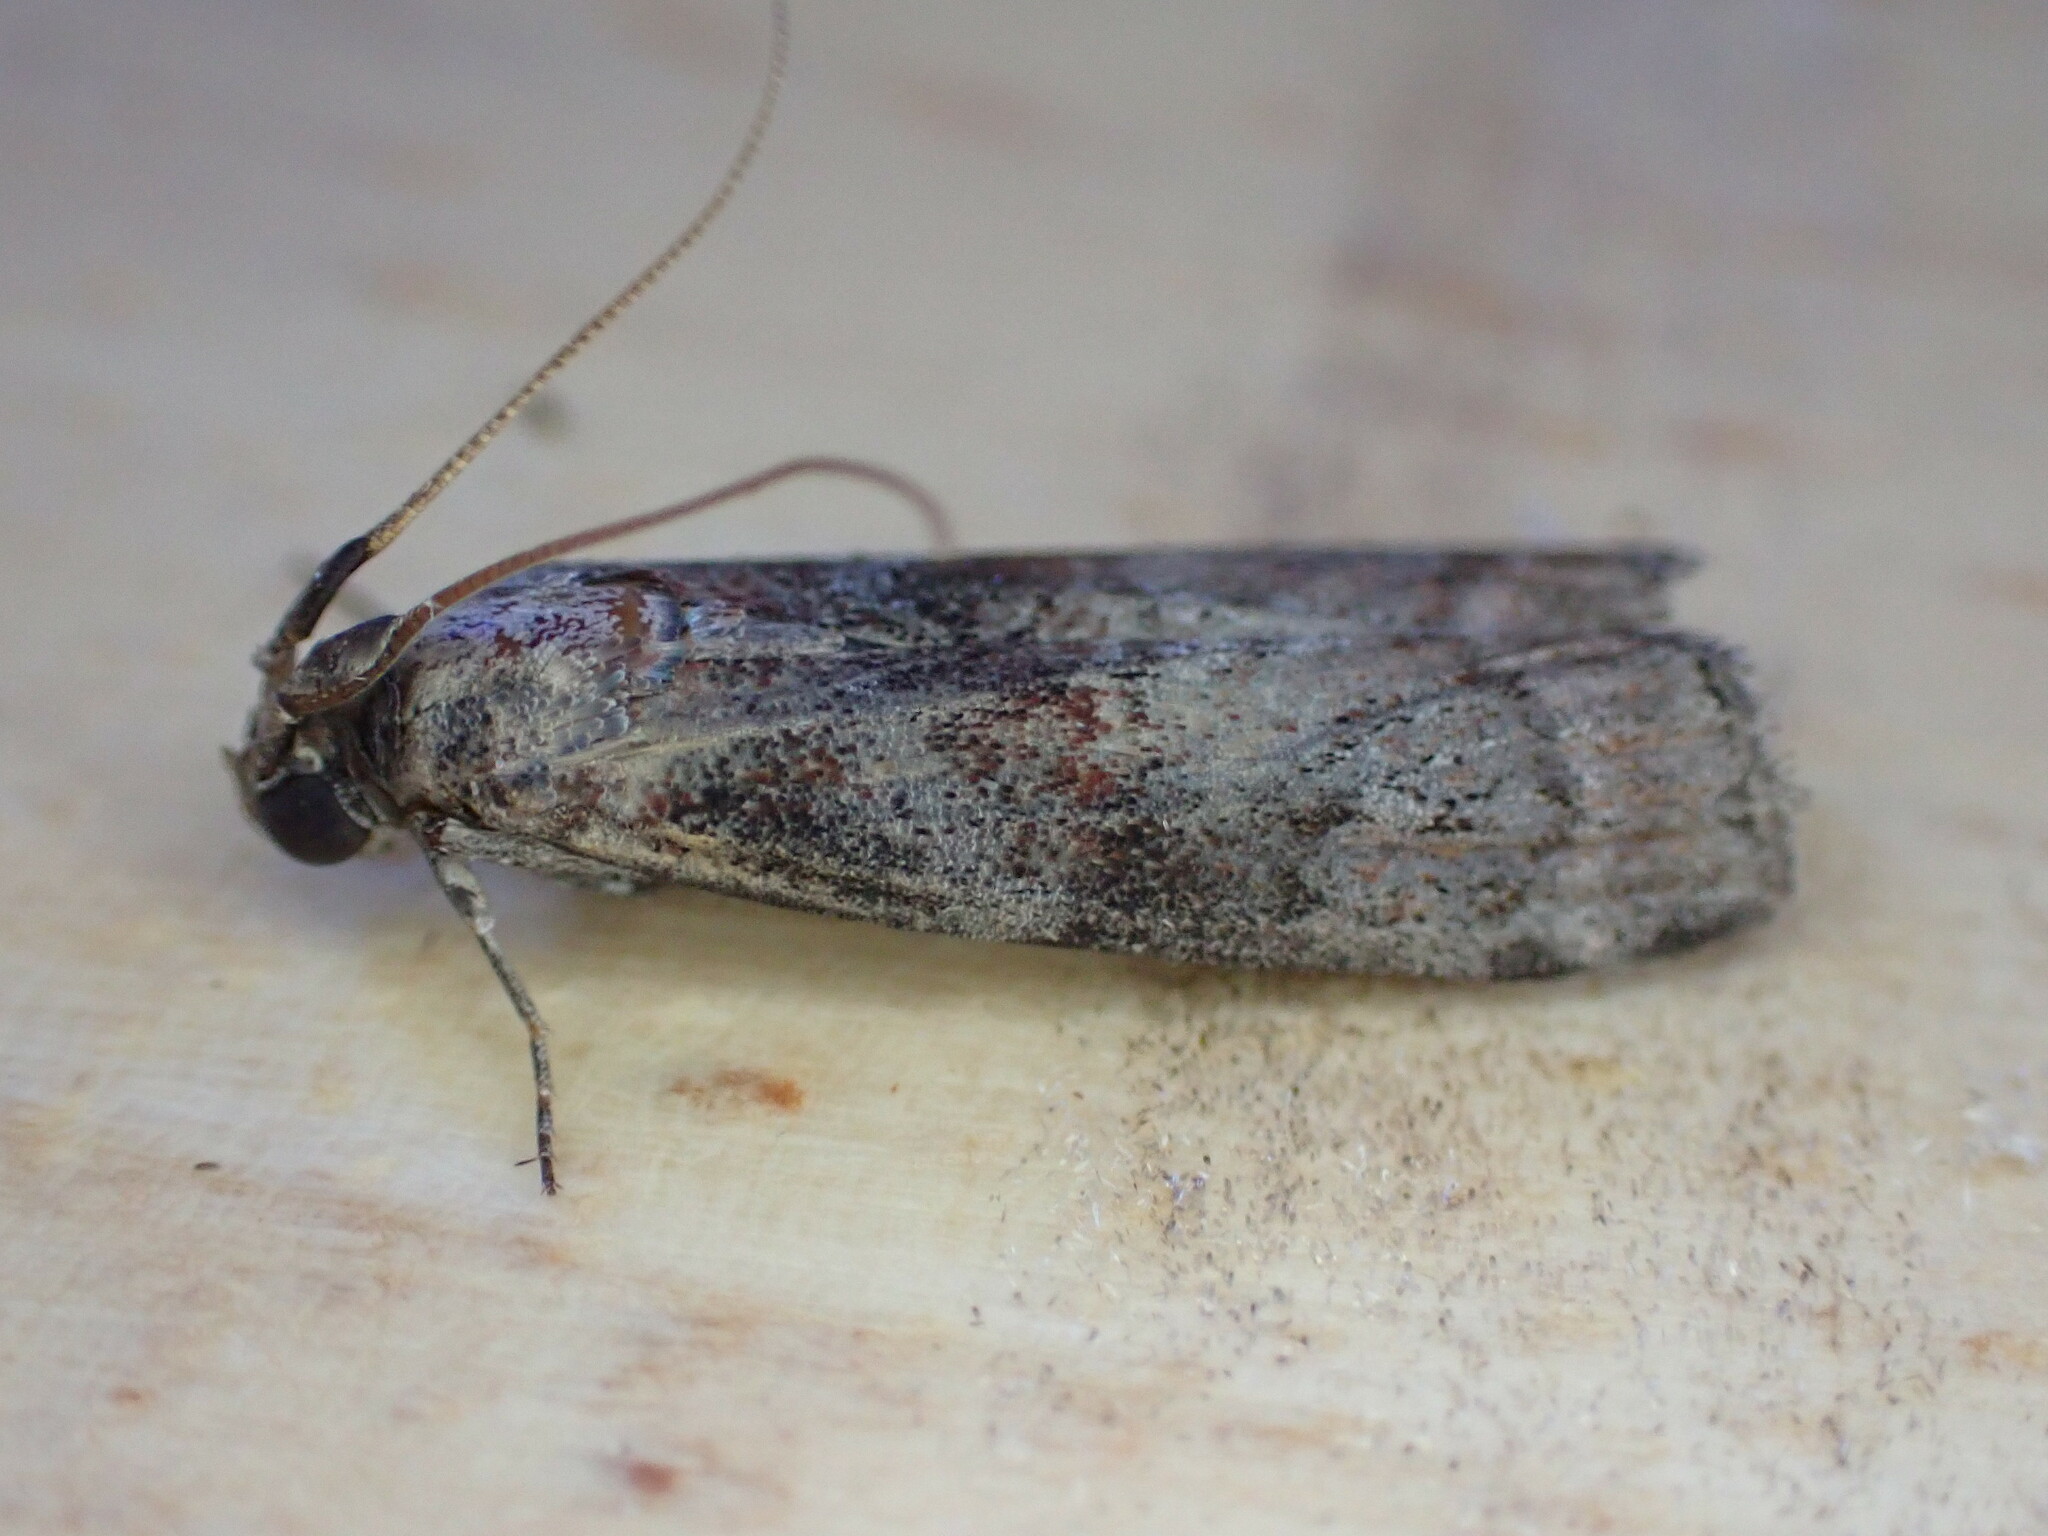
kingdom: Animalia
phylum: Arthropoda
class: Insecta
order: Lepidoptera
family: Pyralidae
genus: Phycita
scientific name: Phycita roborella
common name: Dotted oak knot-horn
